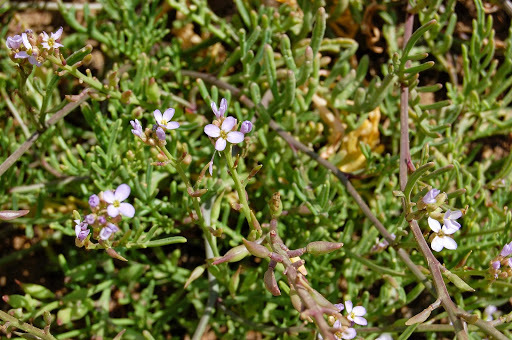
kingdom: Plantae
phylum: Tracheophyta
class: Magnoliopsida
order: Brassicales
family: Brassicaceae
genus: Cakile
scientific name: Cakile maritima
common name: Sea rocket
